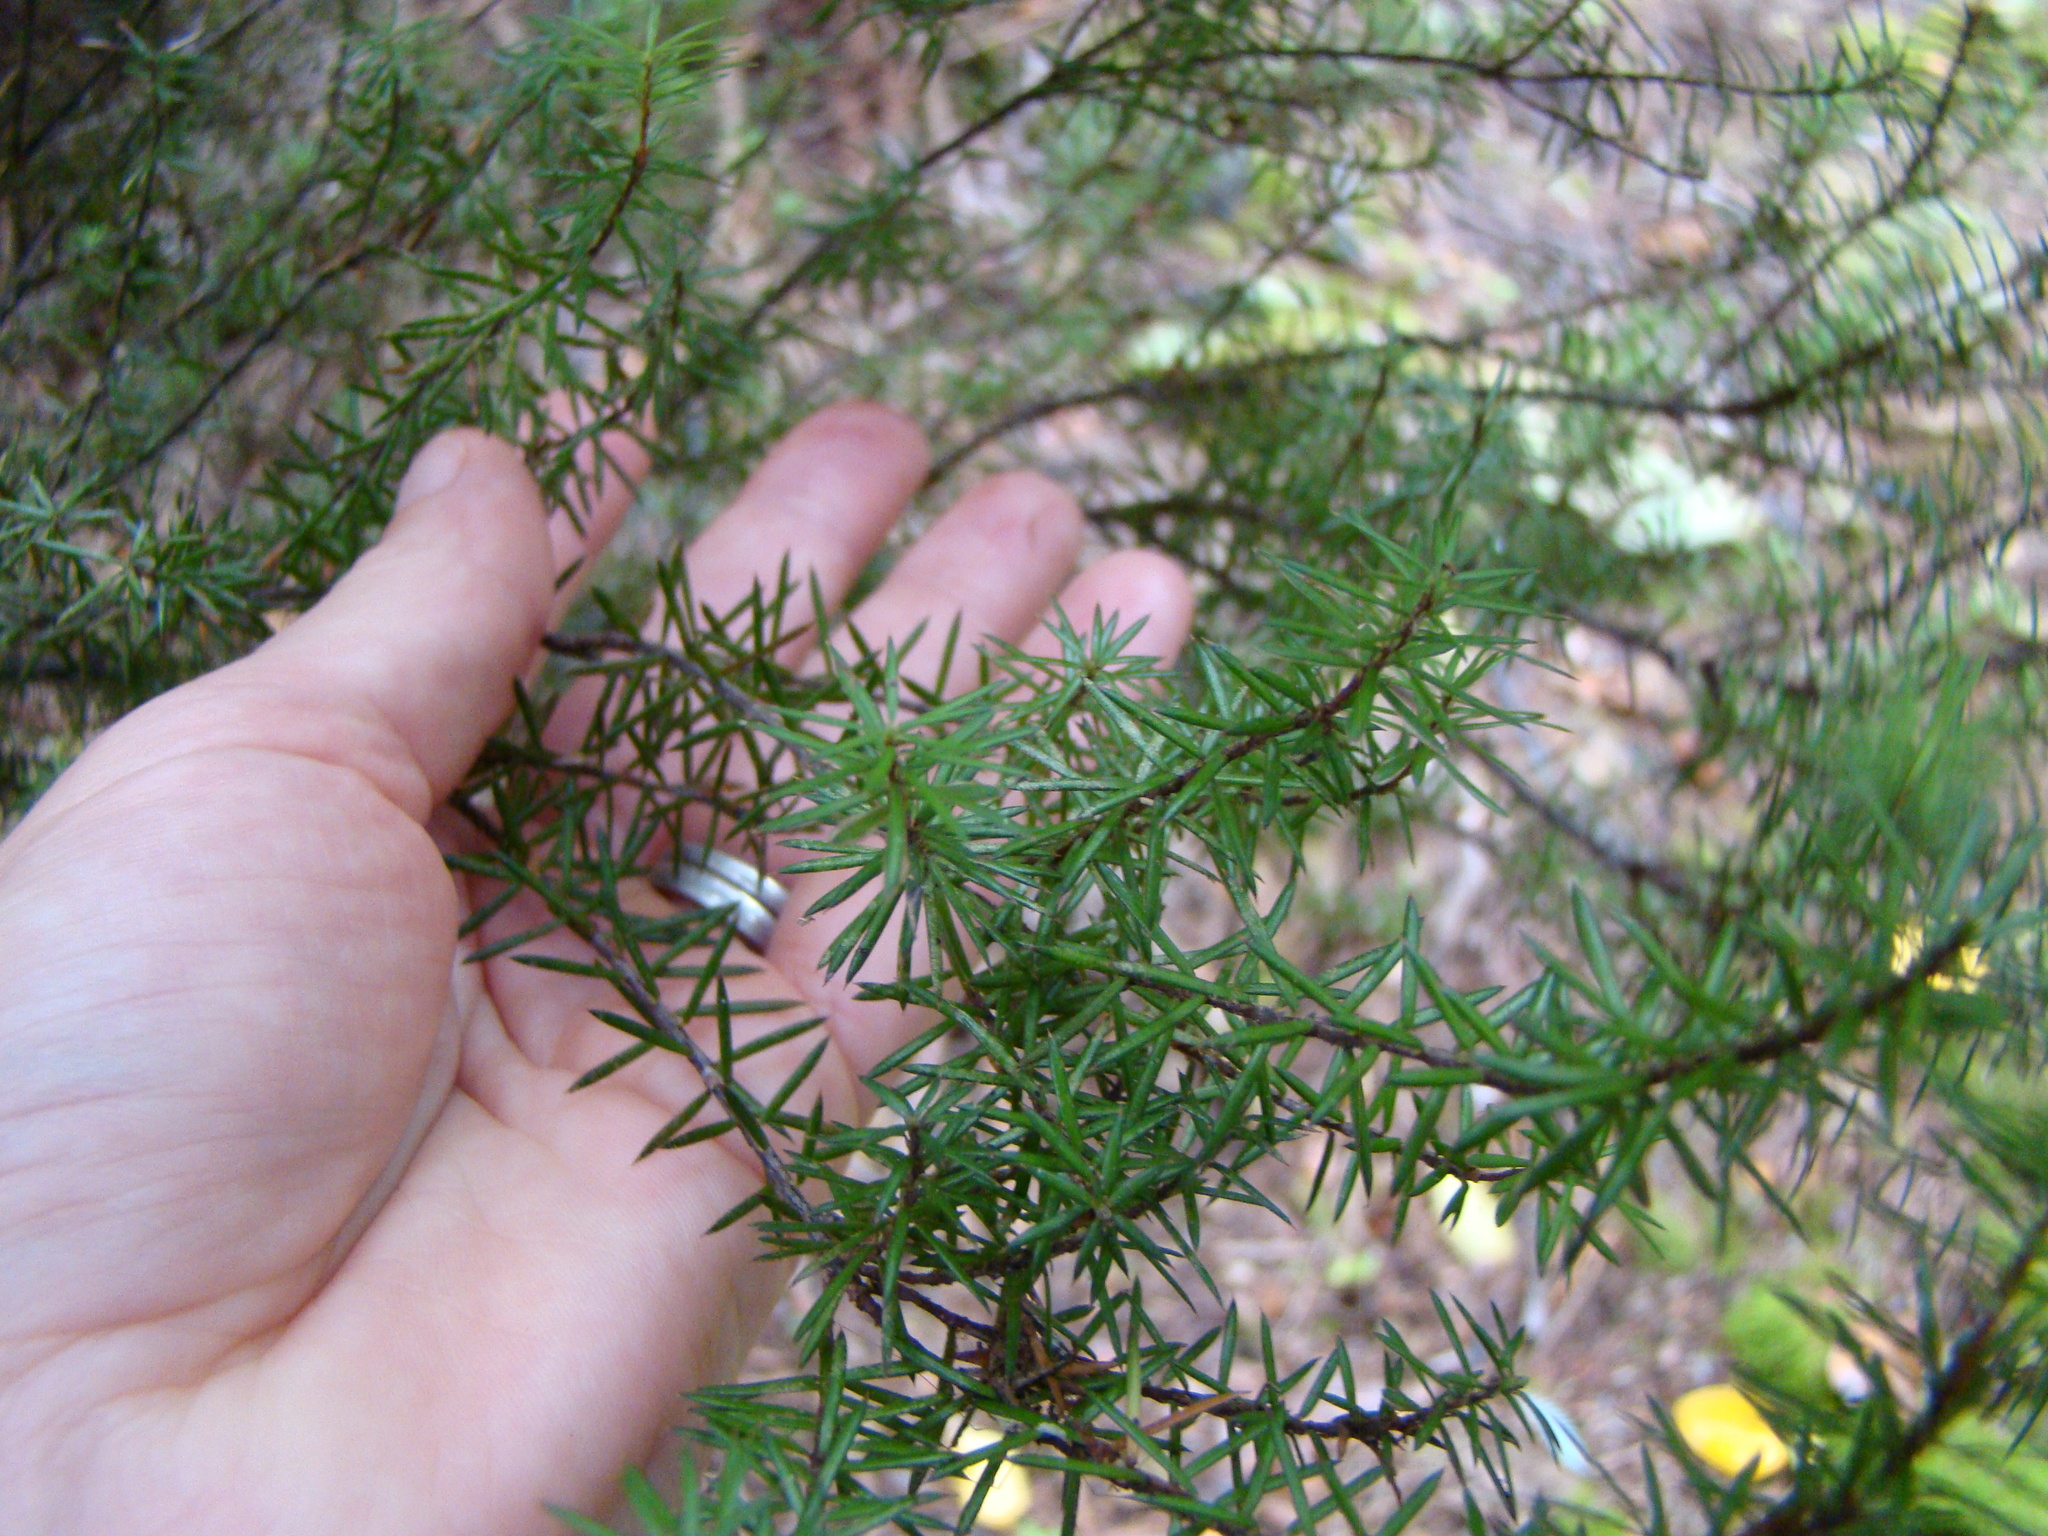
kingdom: Plantae
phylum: Tracheophyta
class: Magnoliopsida
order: Ericales
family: Ericaceae
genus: Leptecophylla
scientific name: Leptecophylla juniperina
